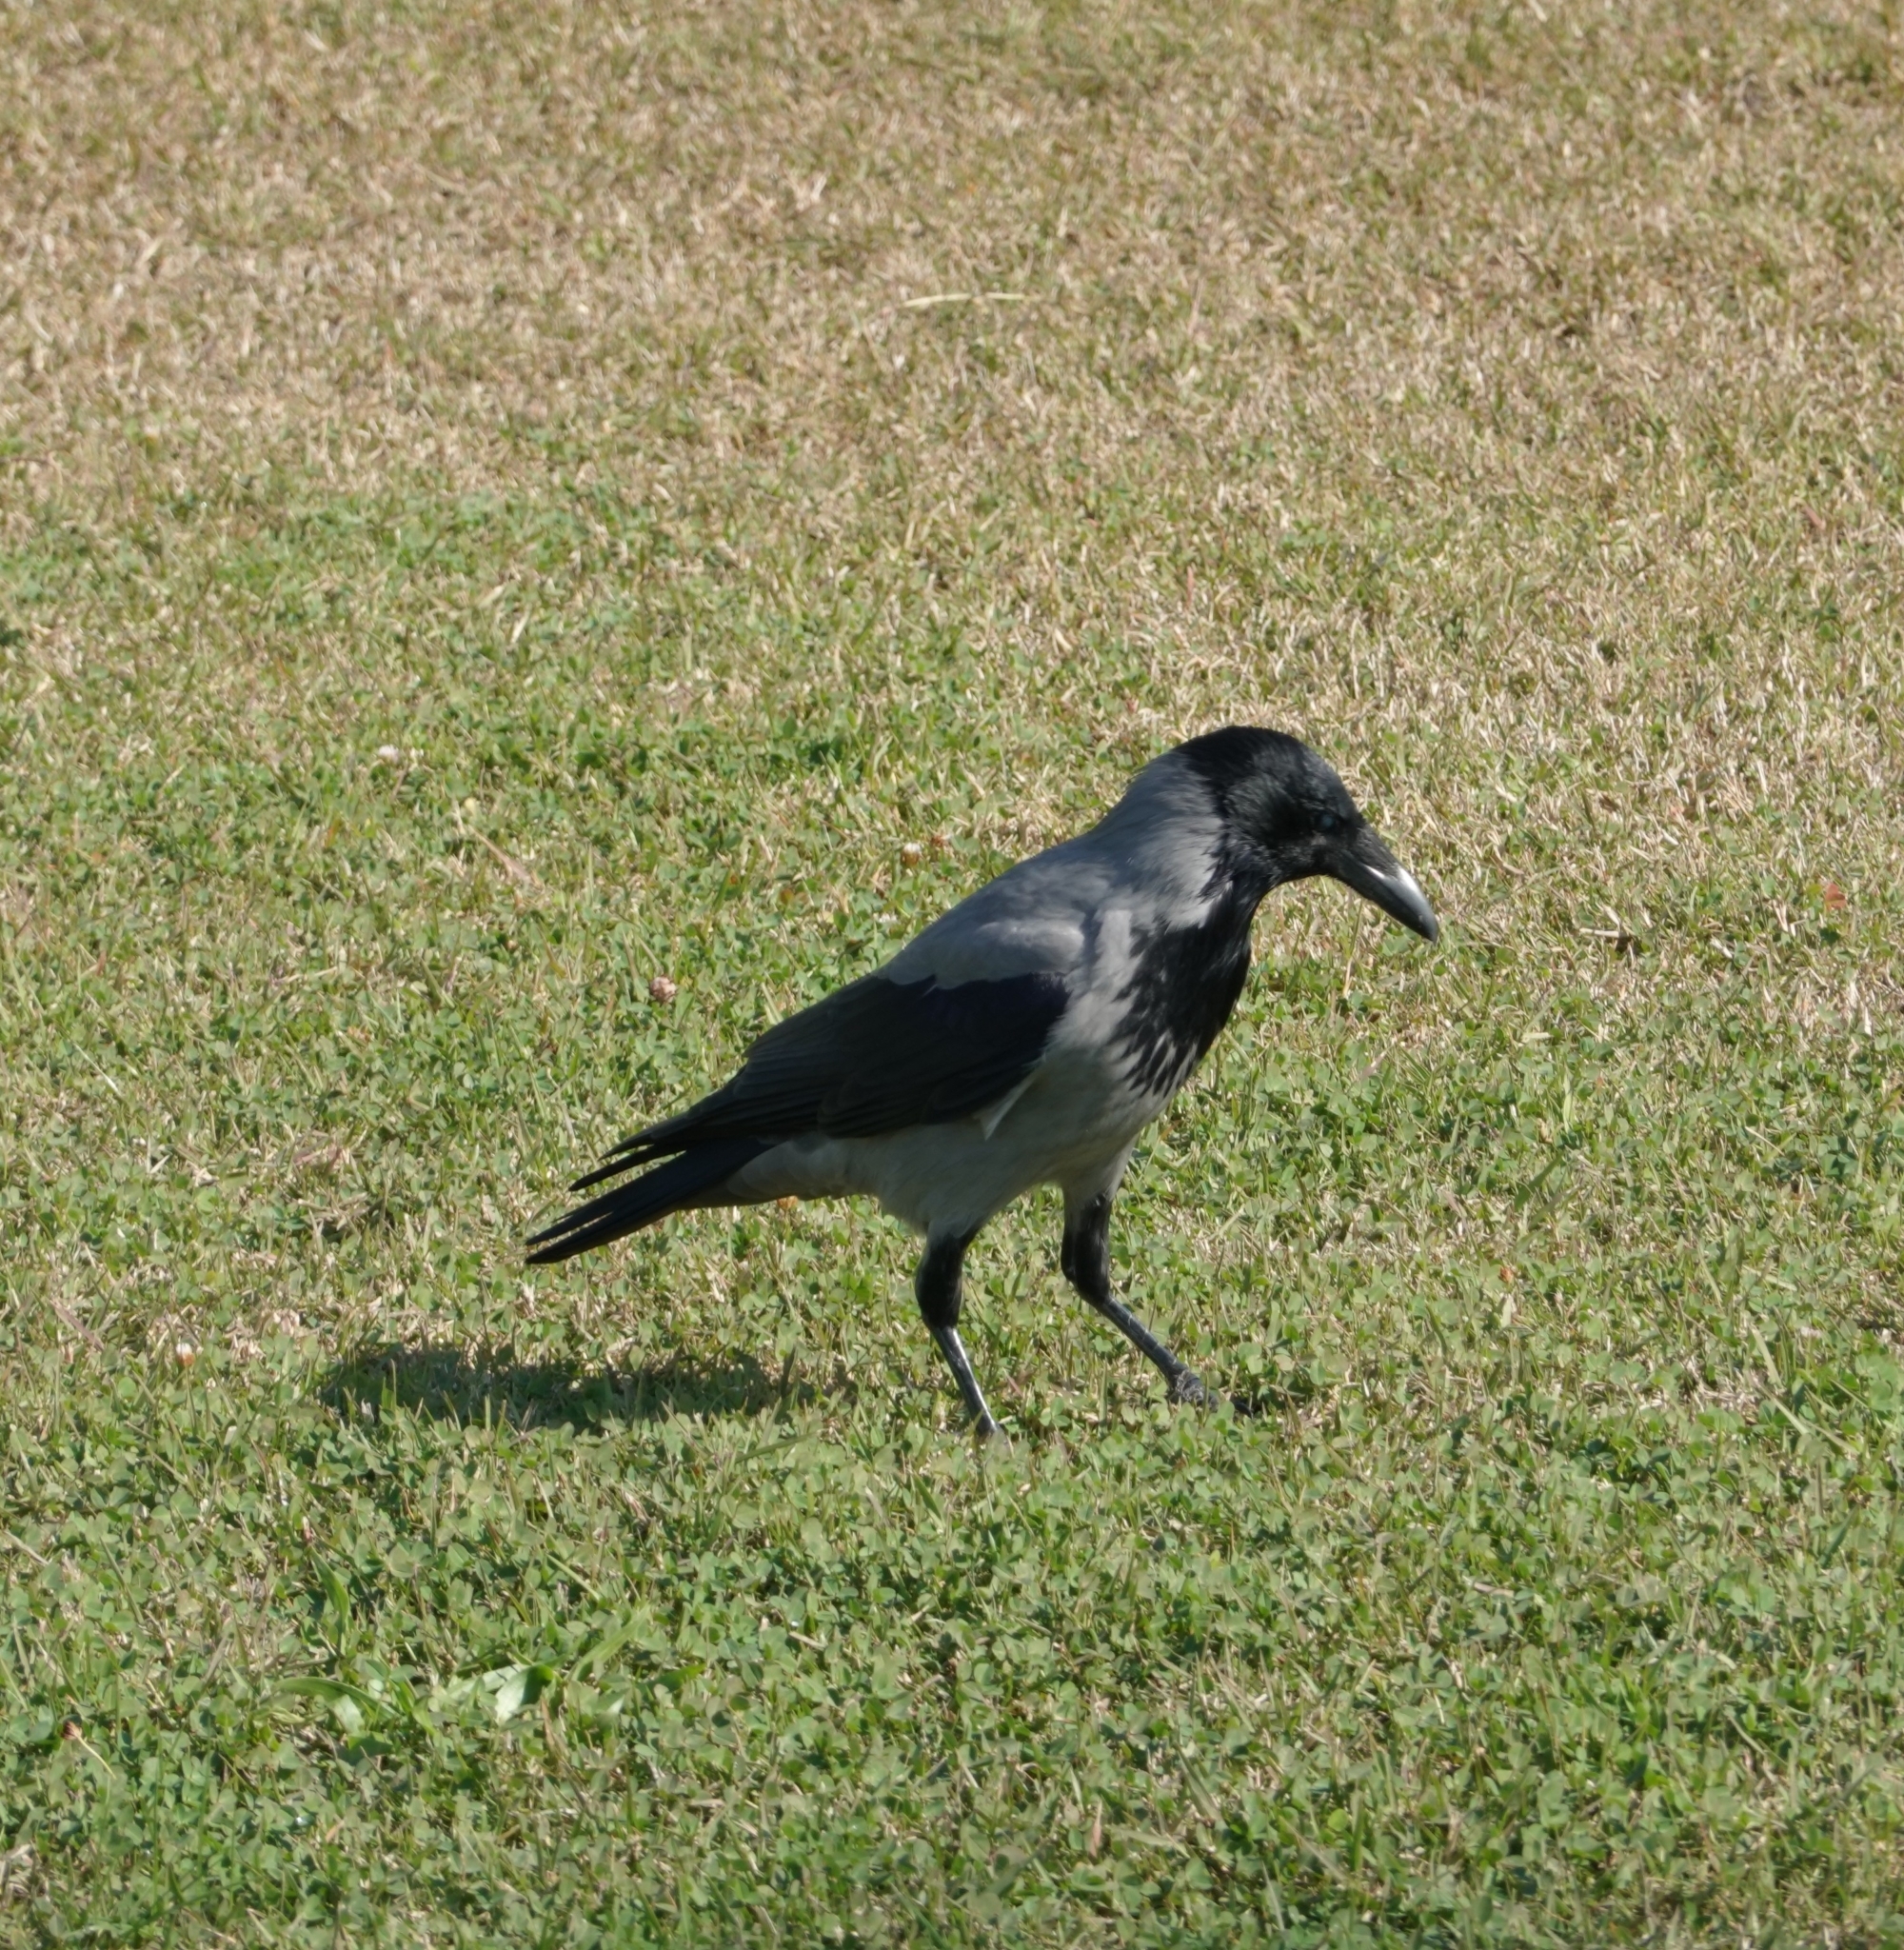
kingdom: Animalia
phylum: Chordata
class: Aves
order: Passeriformes
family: Corvidae
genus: Corvus
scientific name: Corvus cornix
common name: Hooded crow
